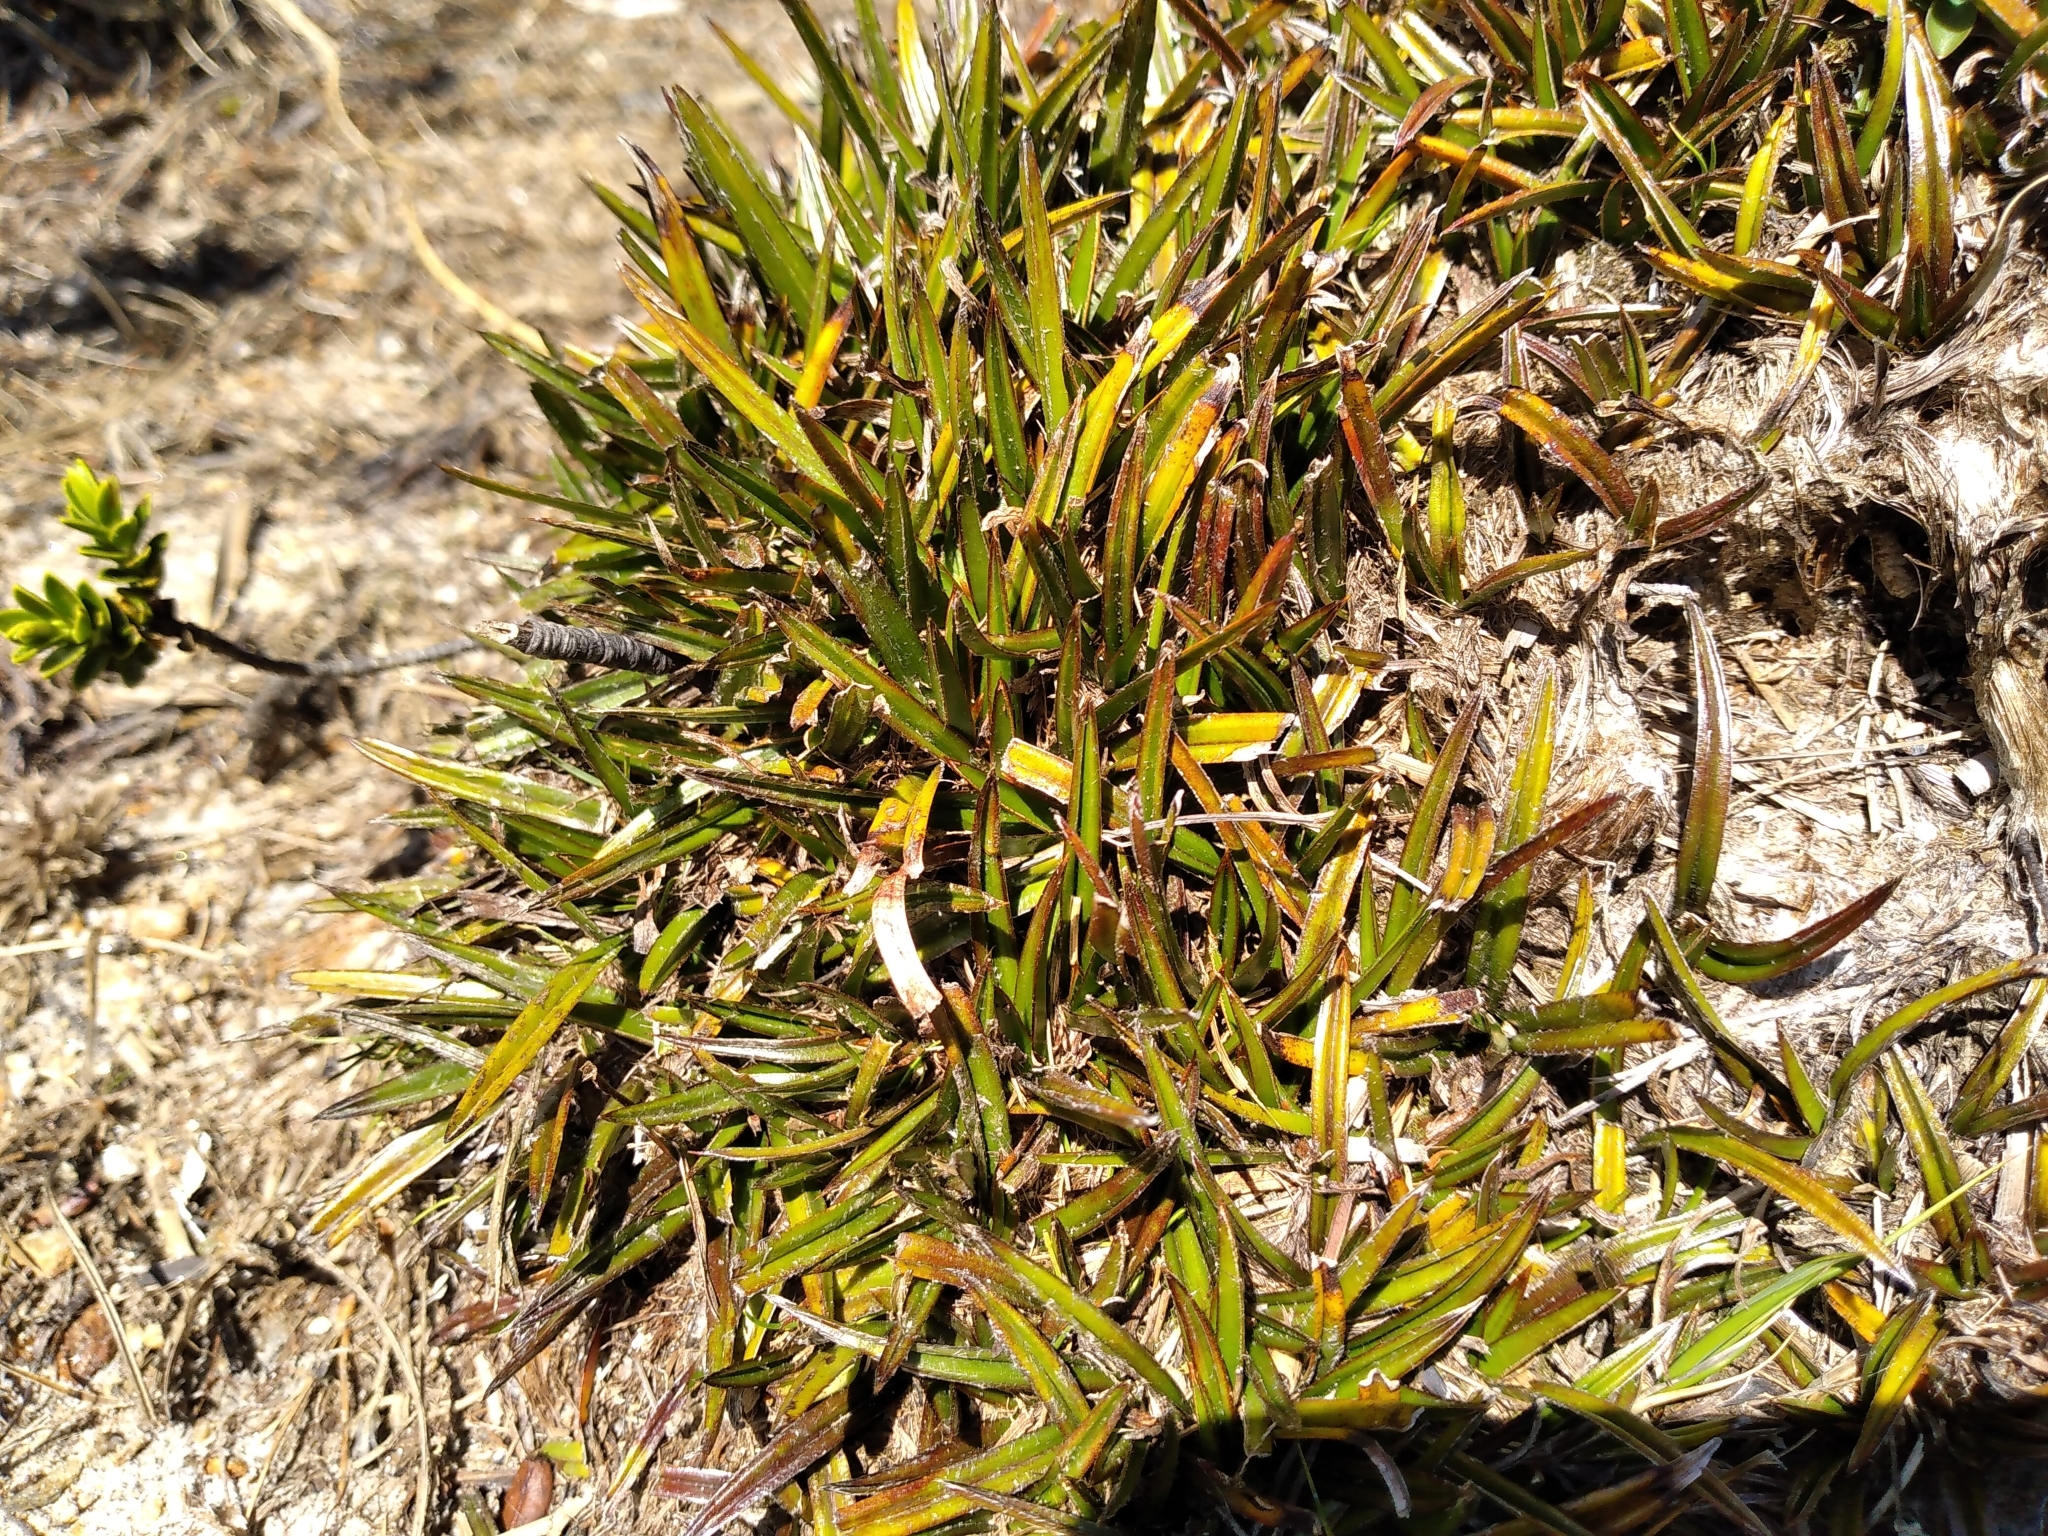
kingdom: Plantae
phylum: Tracheophyta
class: Liliopsida
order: Asparagales
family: Asteliaceae
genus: Astelia
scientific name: Astelia linearis
